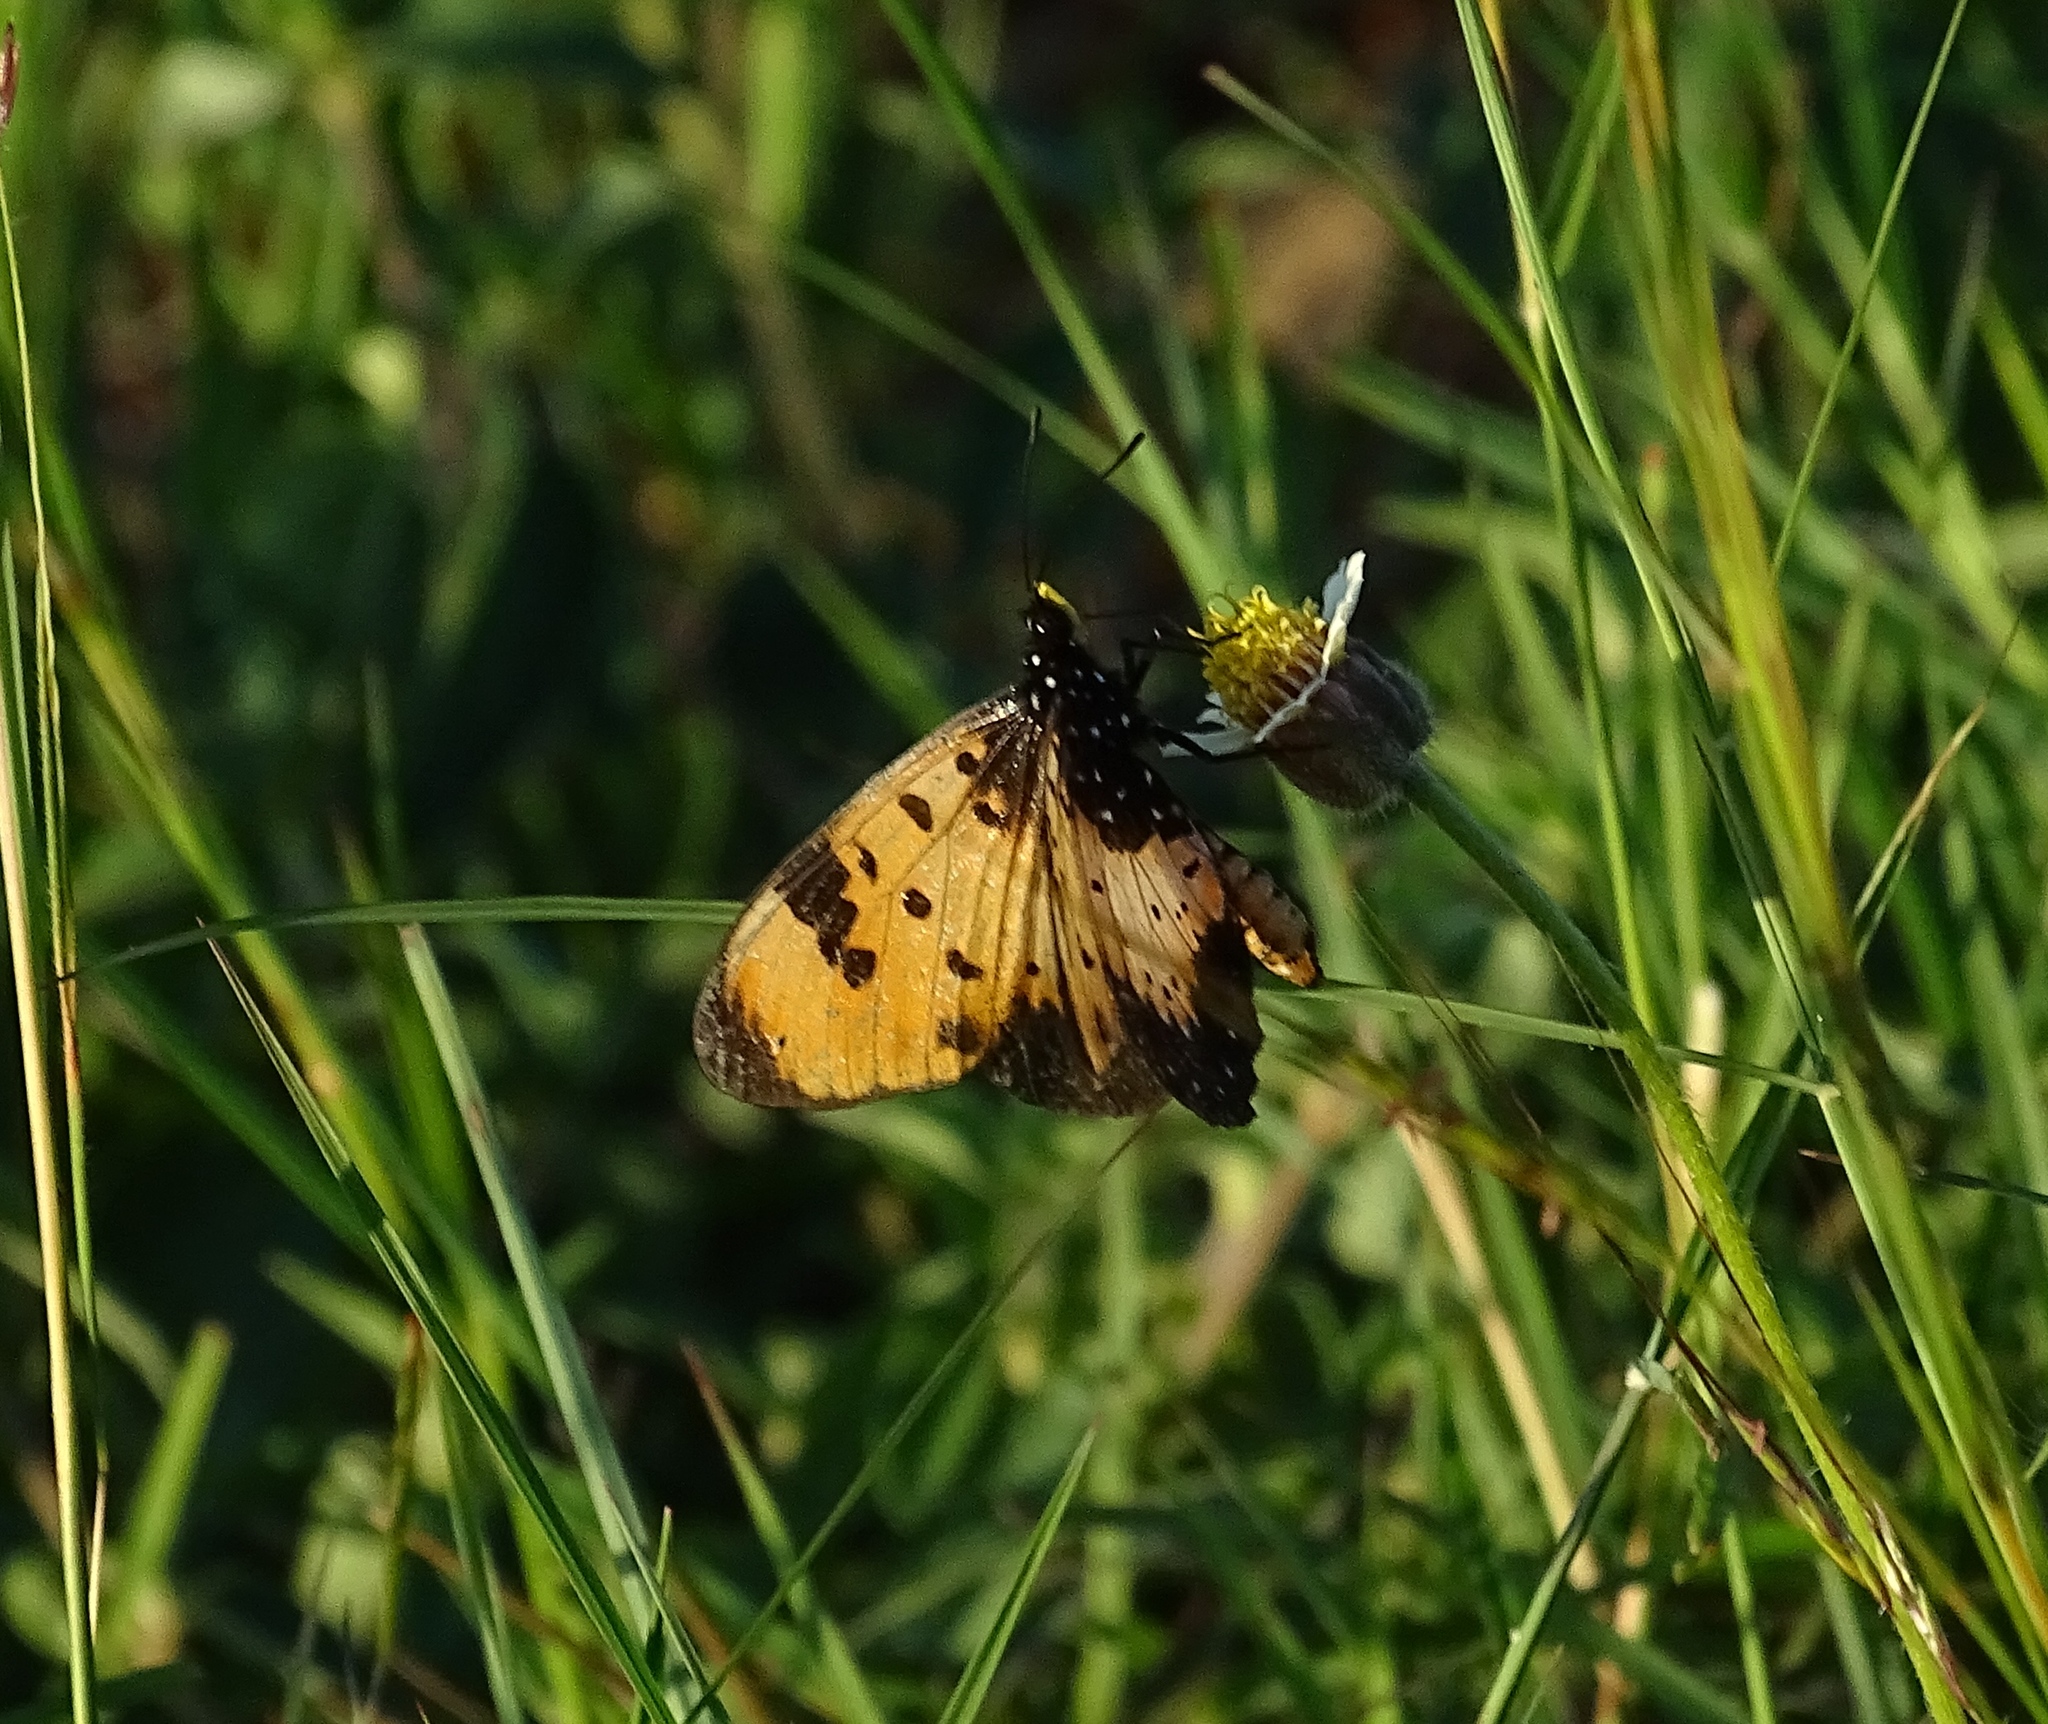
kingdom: Animalia
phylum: Arthropoda
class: Insecta
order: Lepidoptera
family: Nymphalidae
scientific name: Nymphalidae
